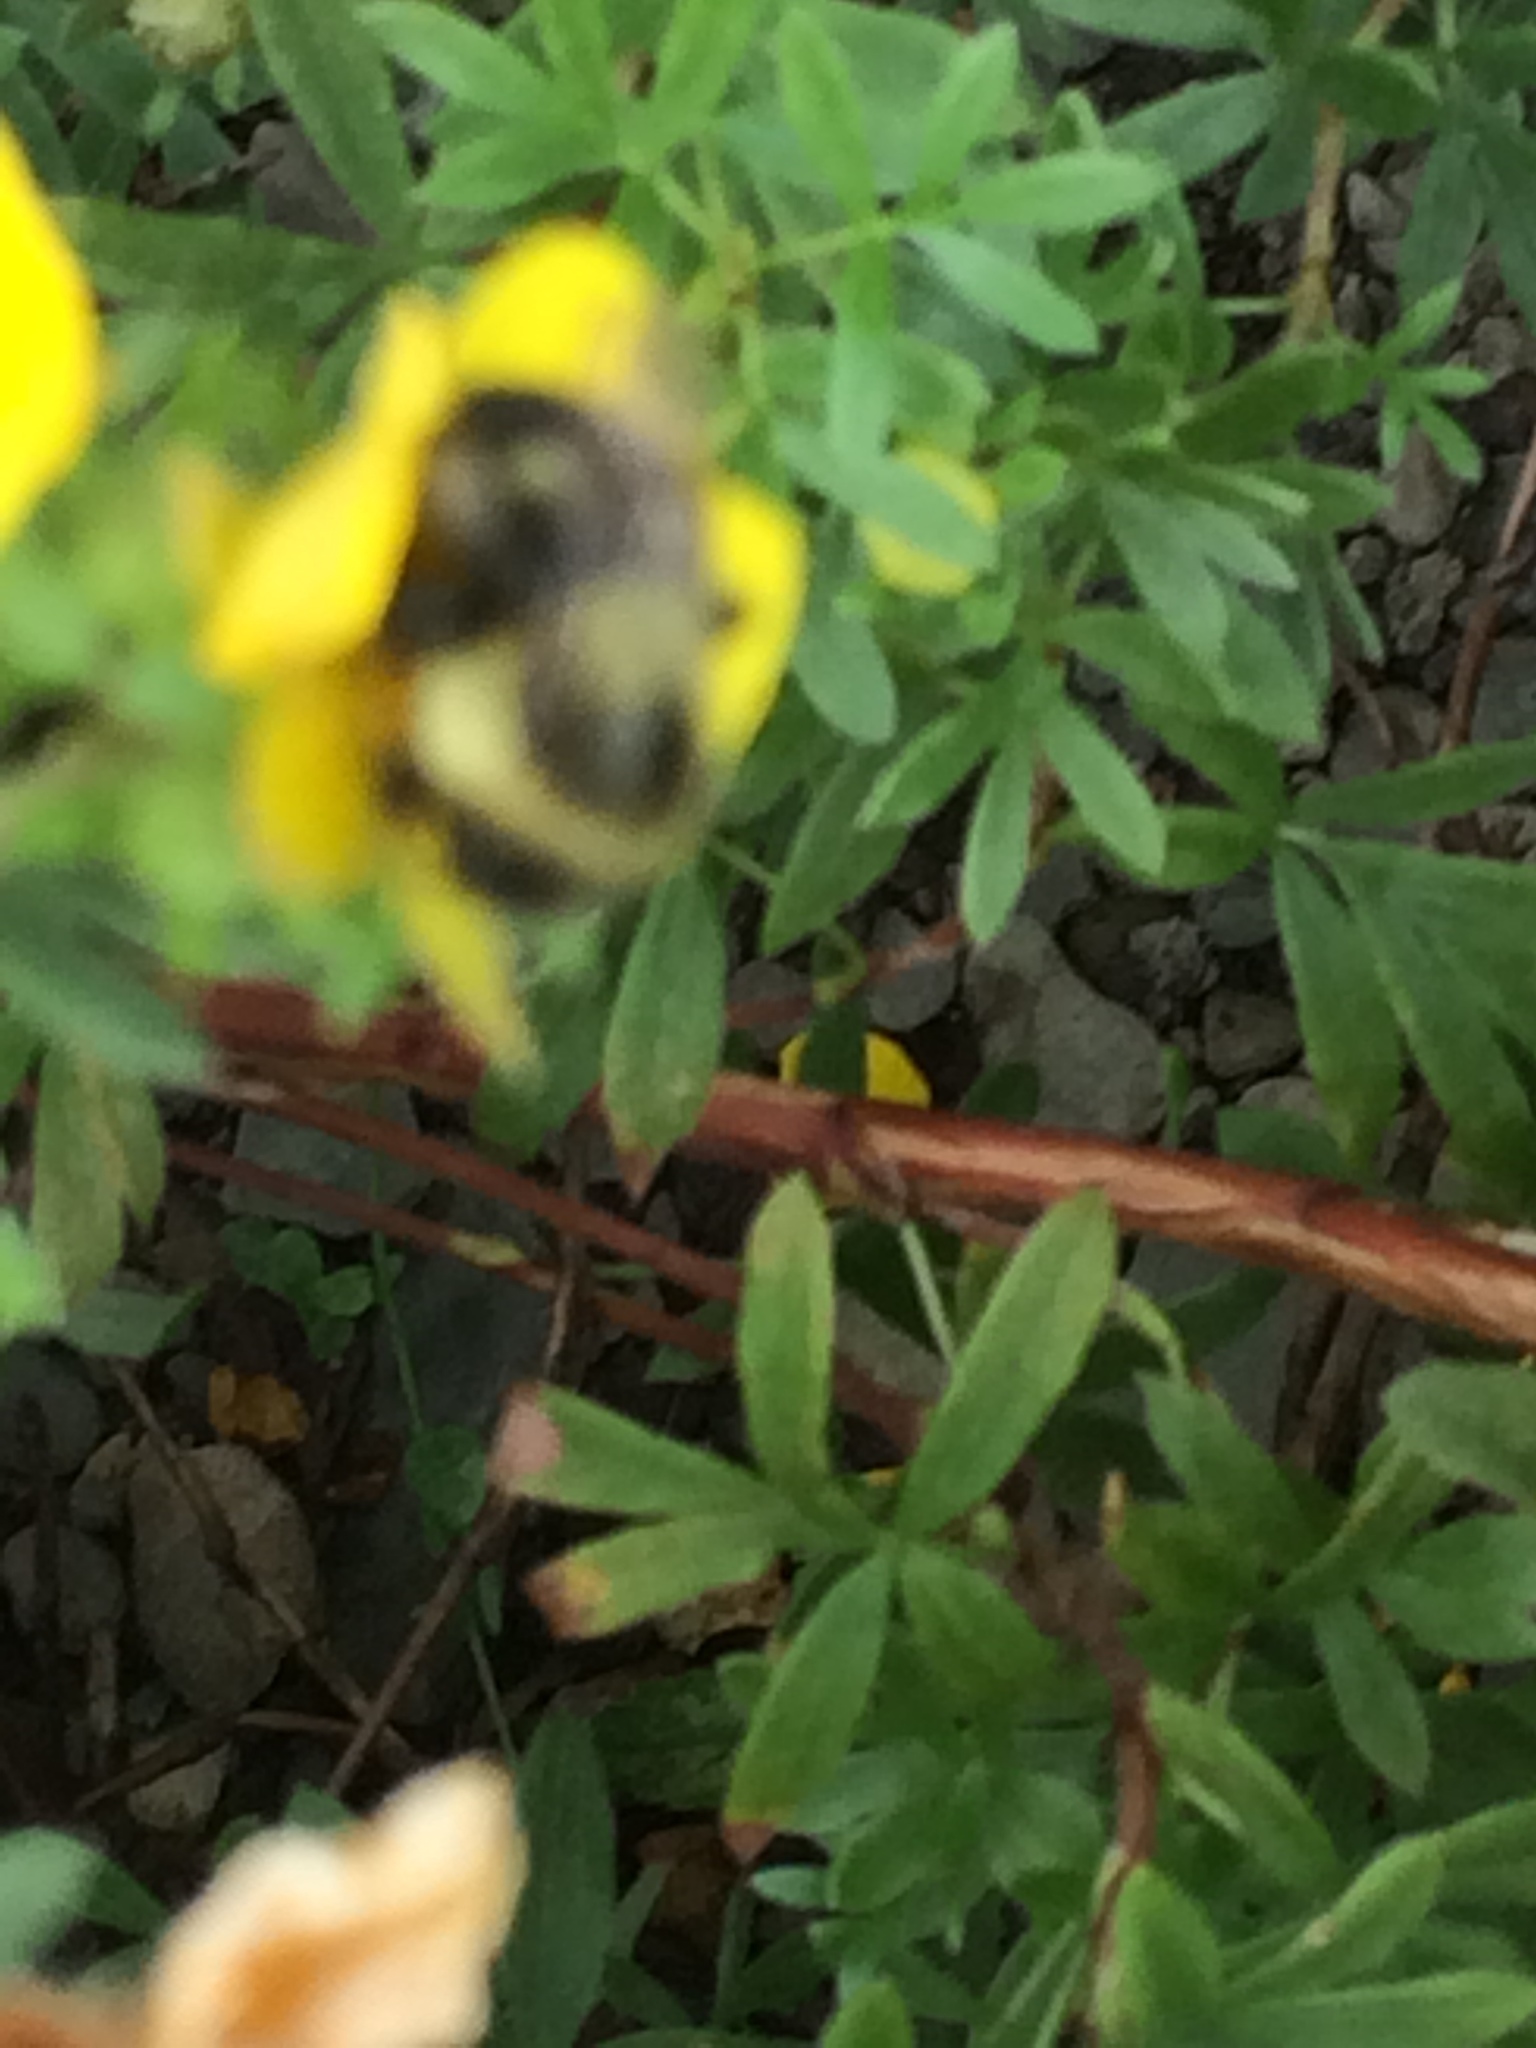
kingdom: Animalia
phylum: Arthropoda
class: Insecta
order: Hymenoptera
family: Apidae
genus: Bombus
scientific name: Bombus impatiens
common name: Common eastern bumble bee
